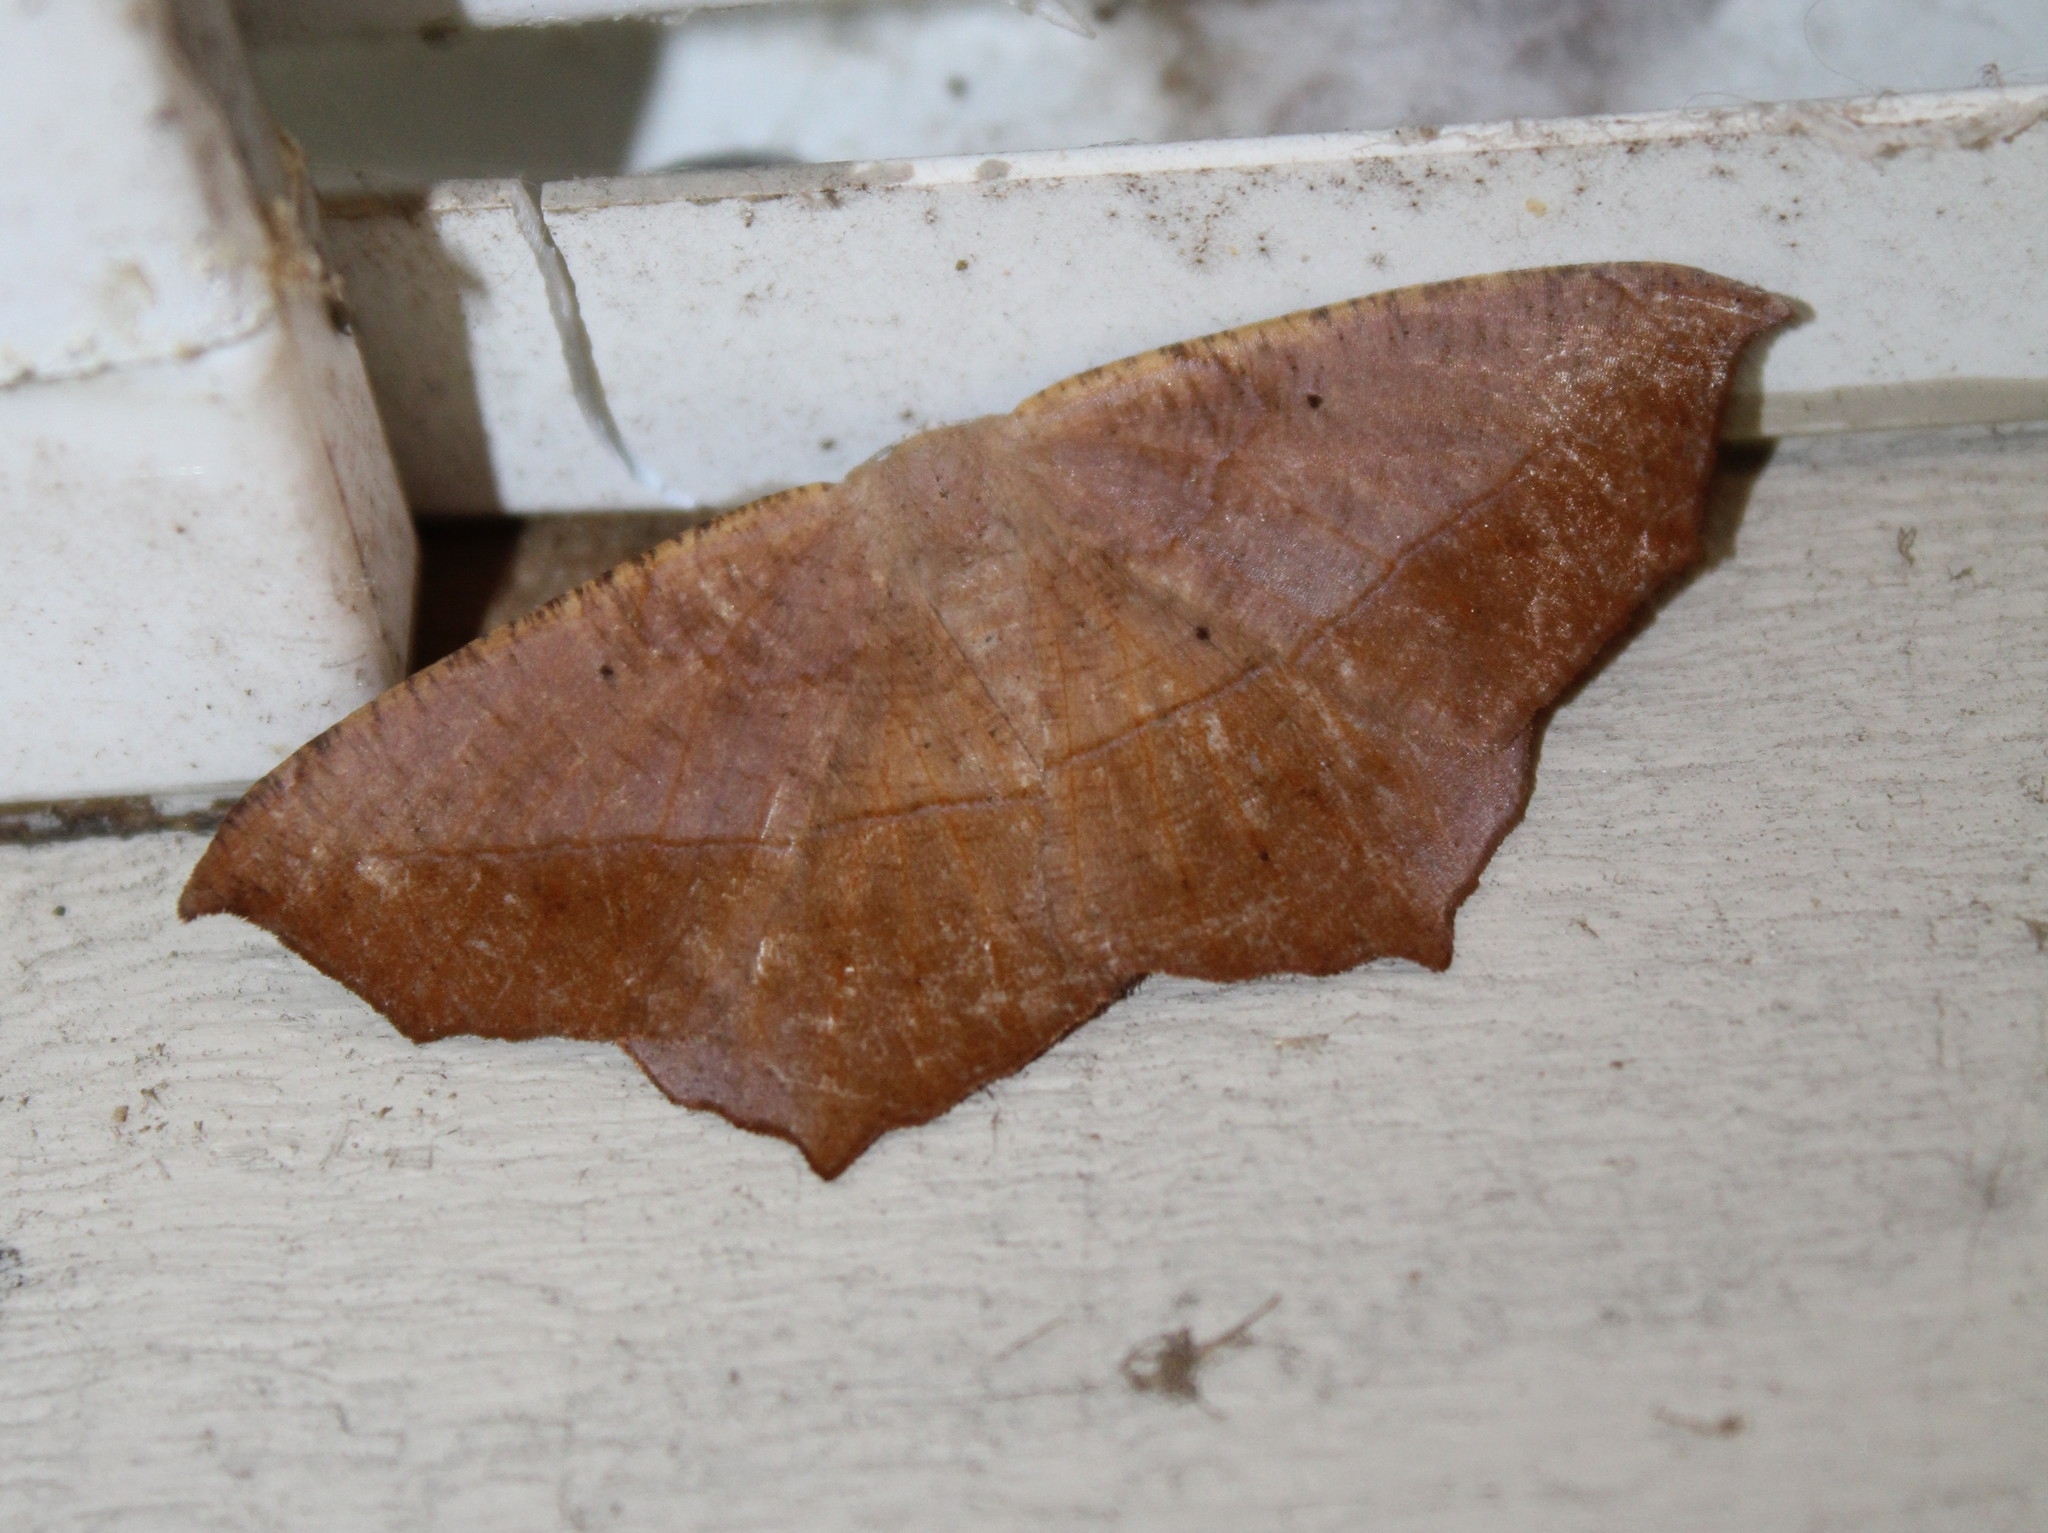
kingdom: Animalia
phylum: Arthropoda
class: Insecta
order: Lepidoptera
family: Geometridae
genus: Prochoerodes
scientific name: Prochoerodes lineola
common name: Large maple spanworm
